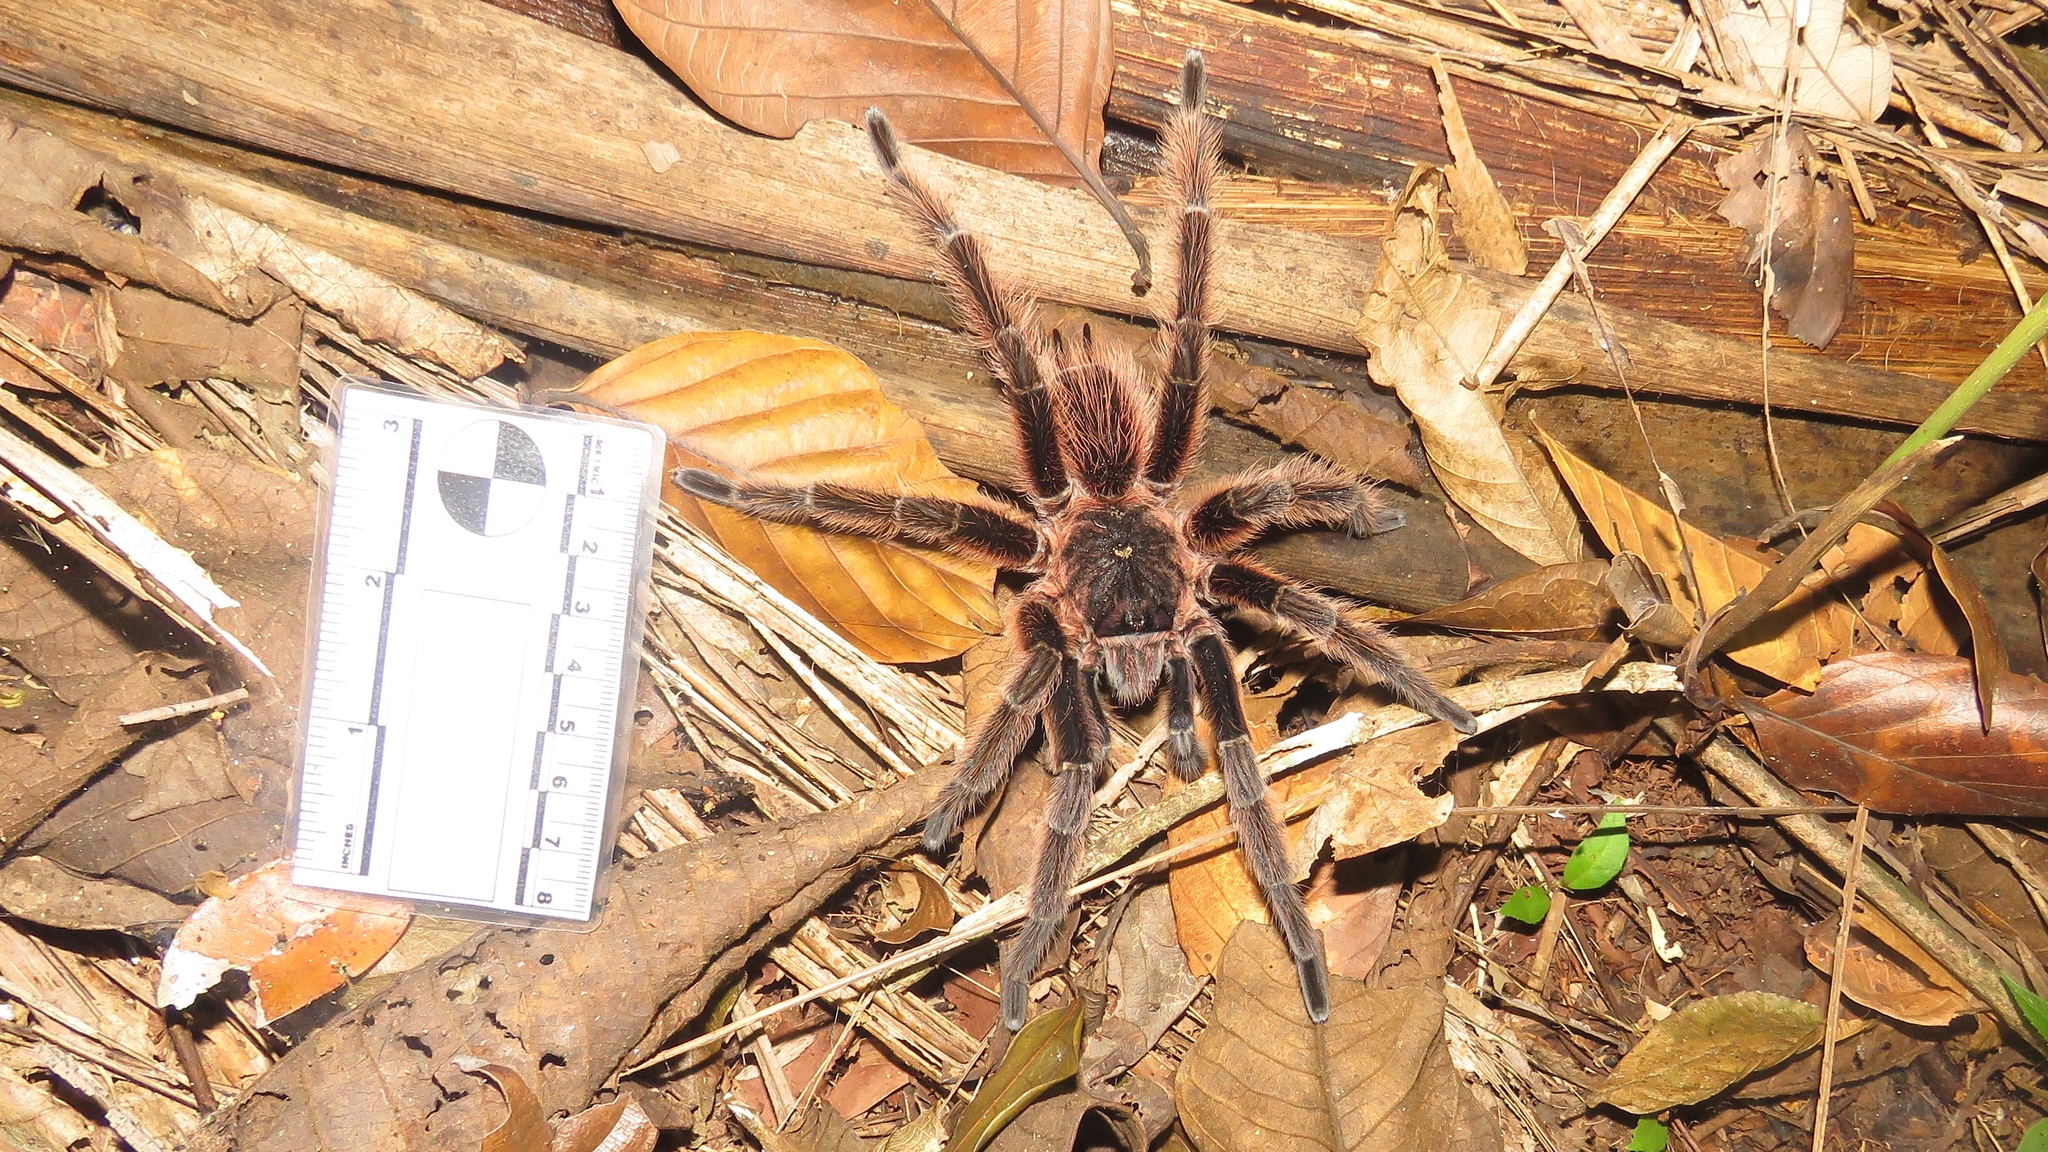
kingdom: Animalia
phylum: Arthropoda
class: Arachnida
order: Araneae
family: Theraphosidae
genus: Sericopelma
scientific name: Sericopelma generala
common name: Tarantula spiders
